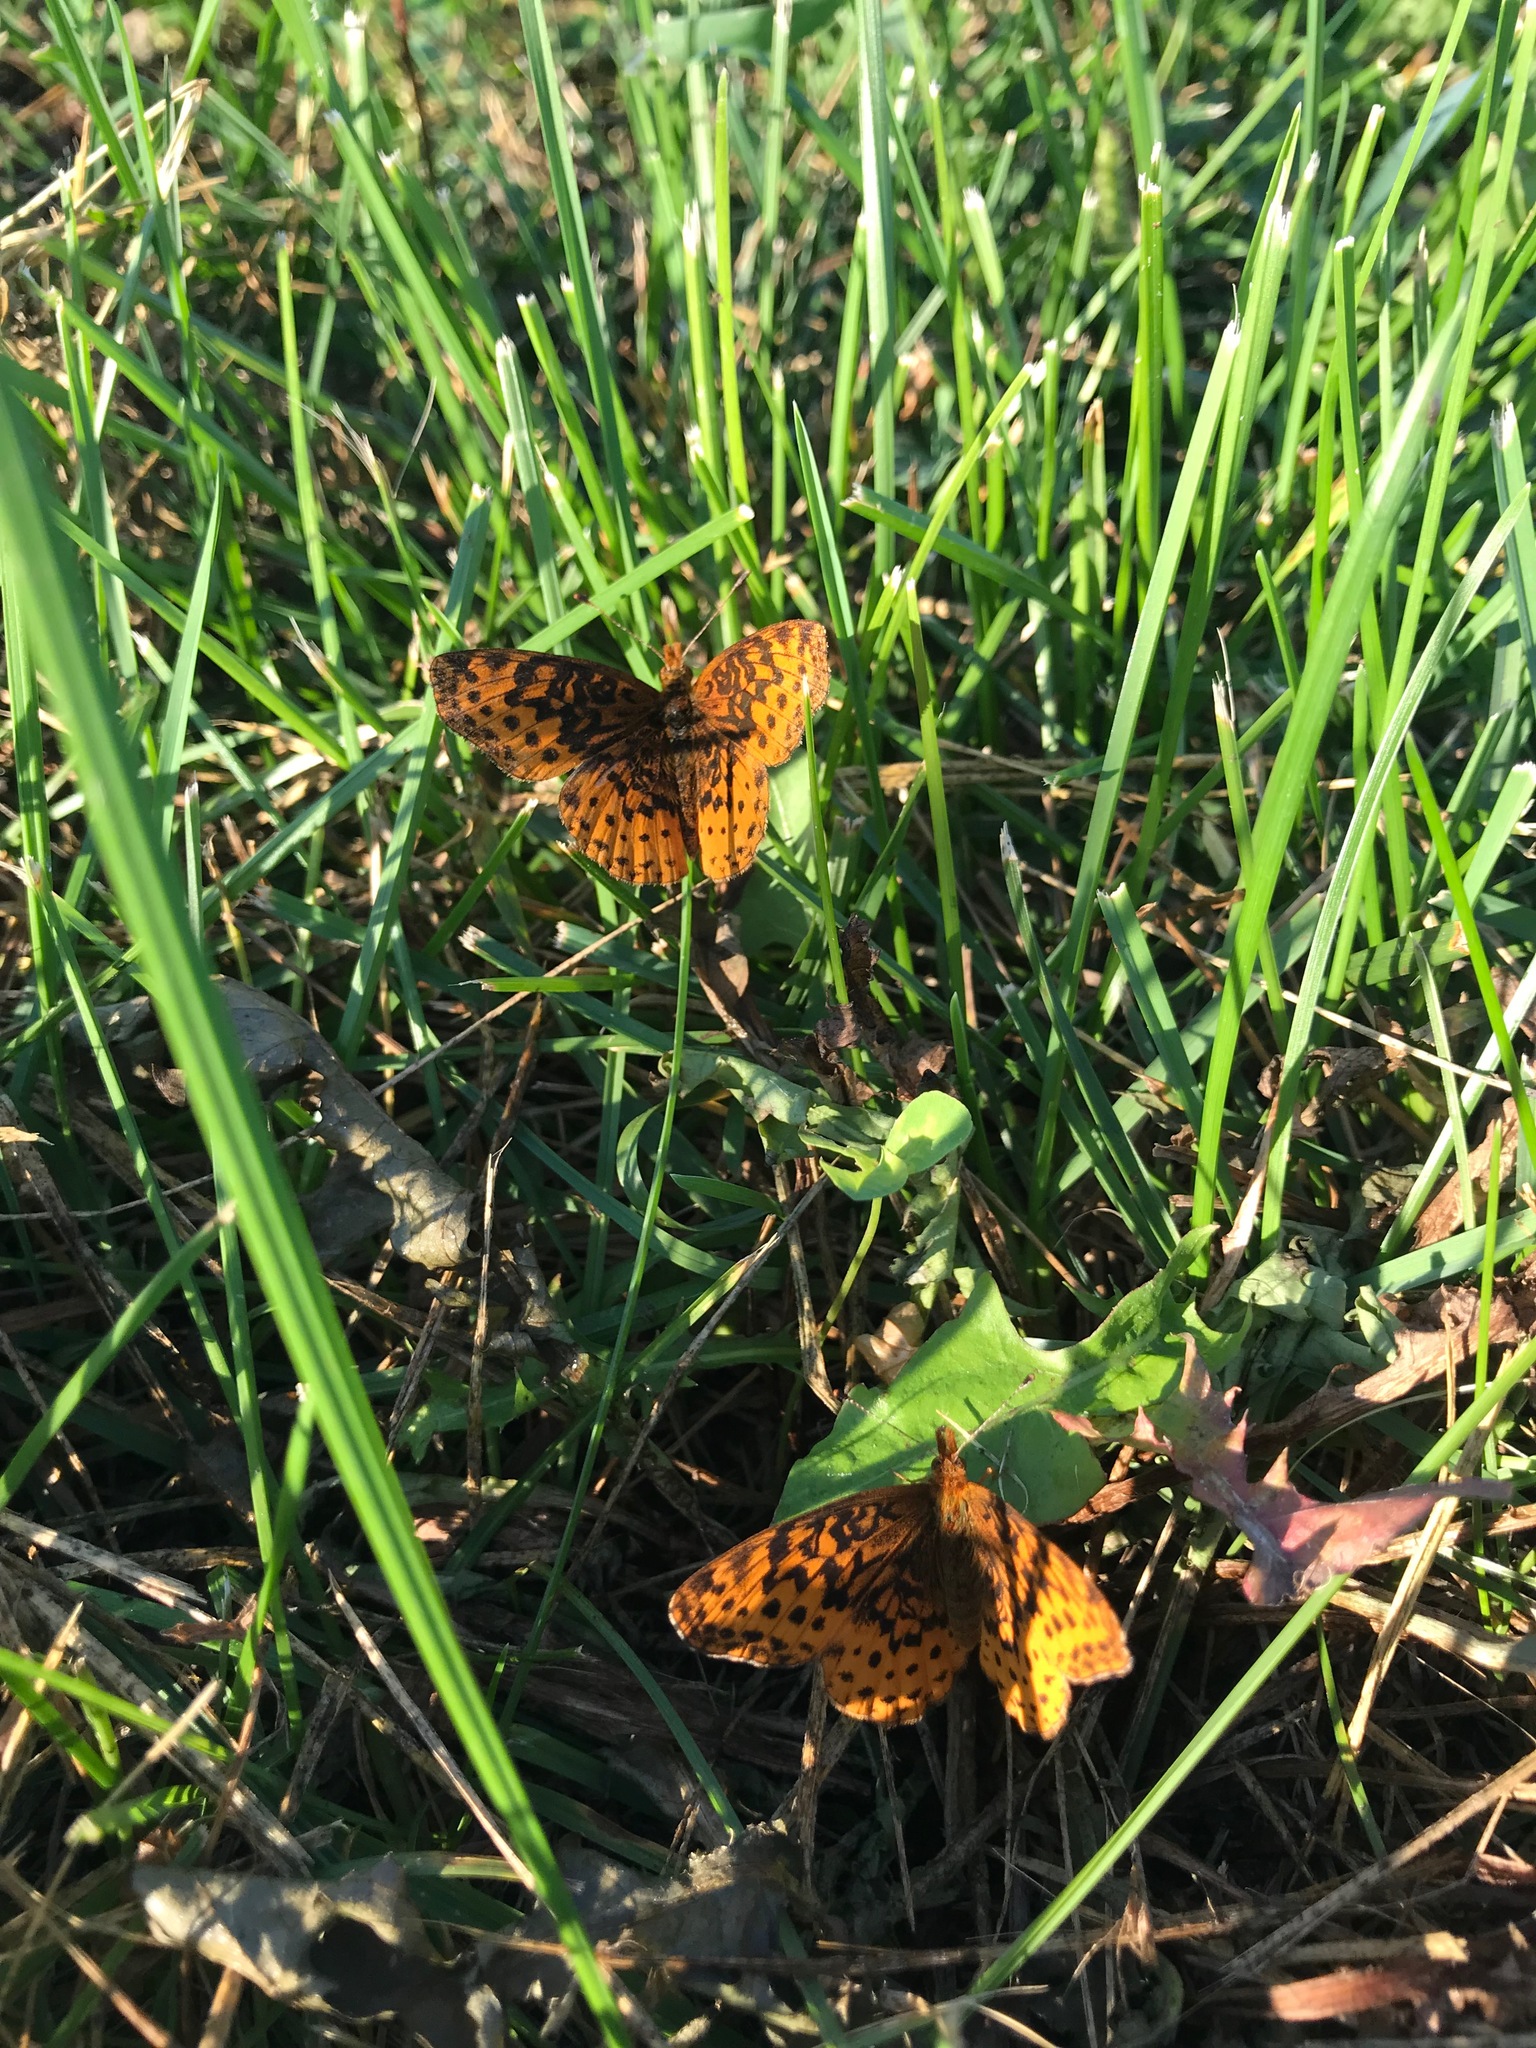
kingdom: Animalia
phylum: Arthropoda
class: Insecta
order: Lepidoptera
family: Nymphalidae
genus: Clossiana
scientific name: Clossiana toddi
